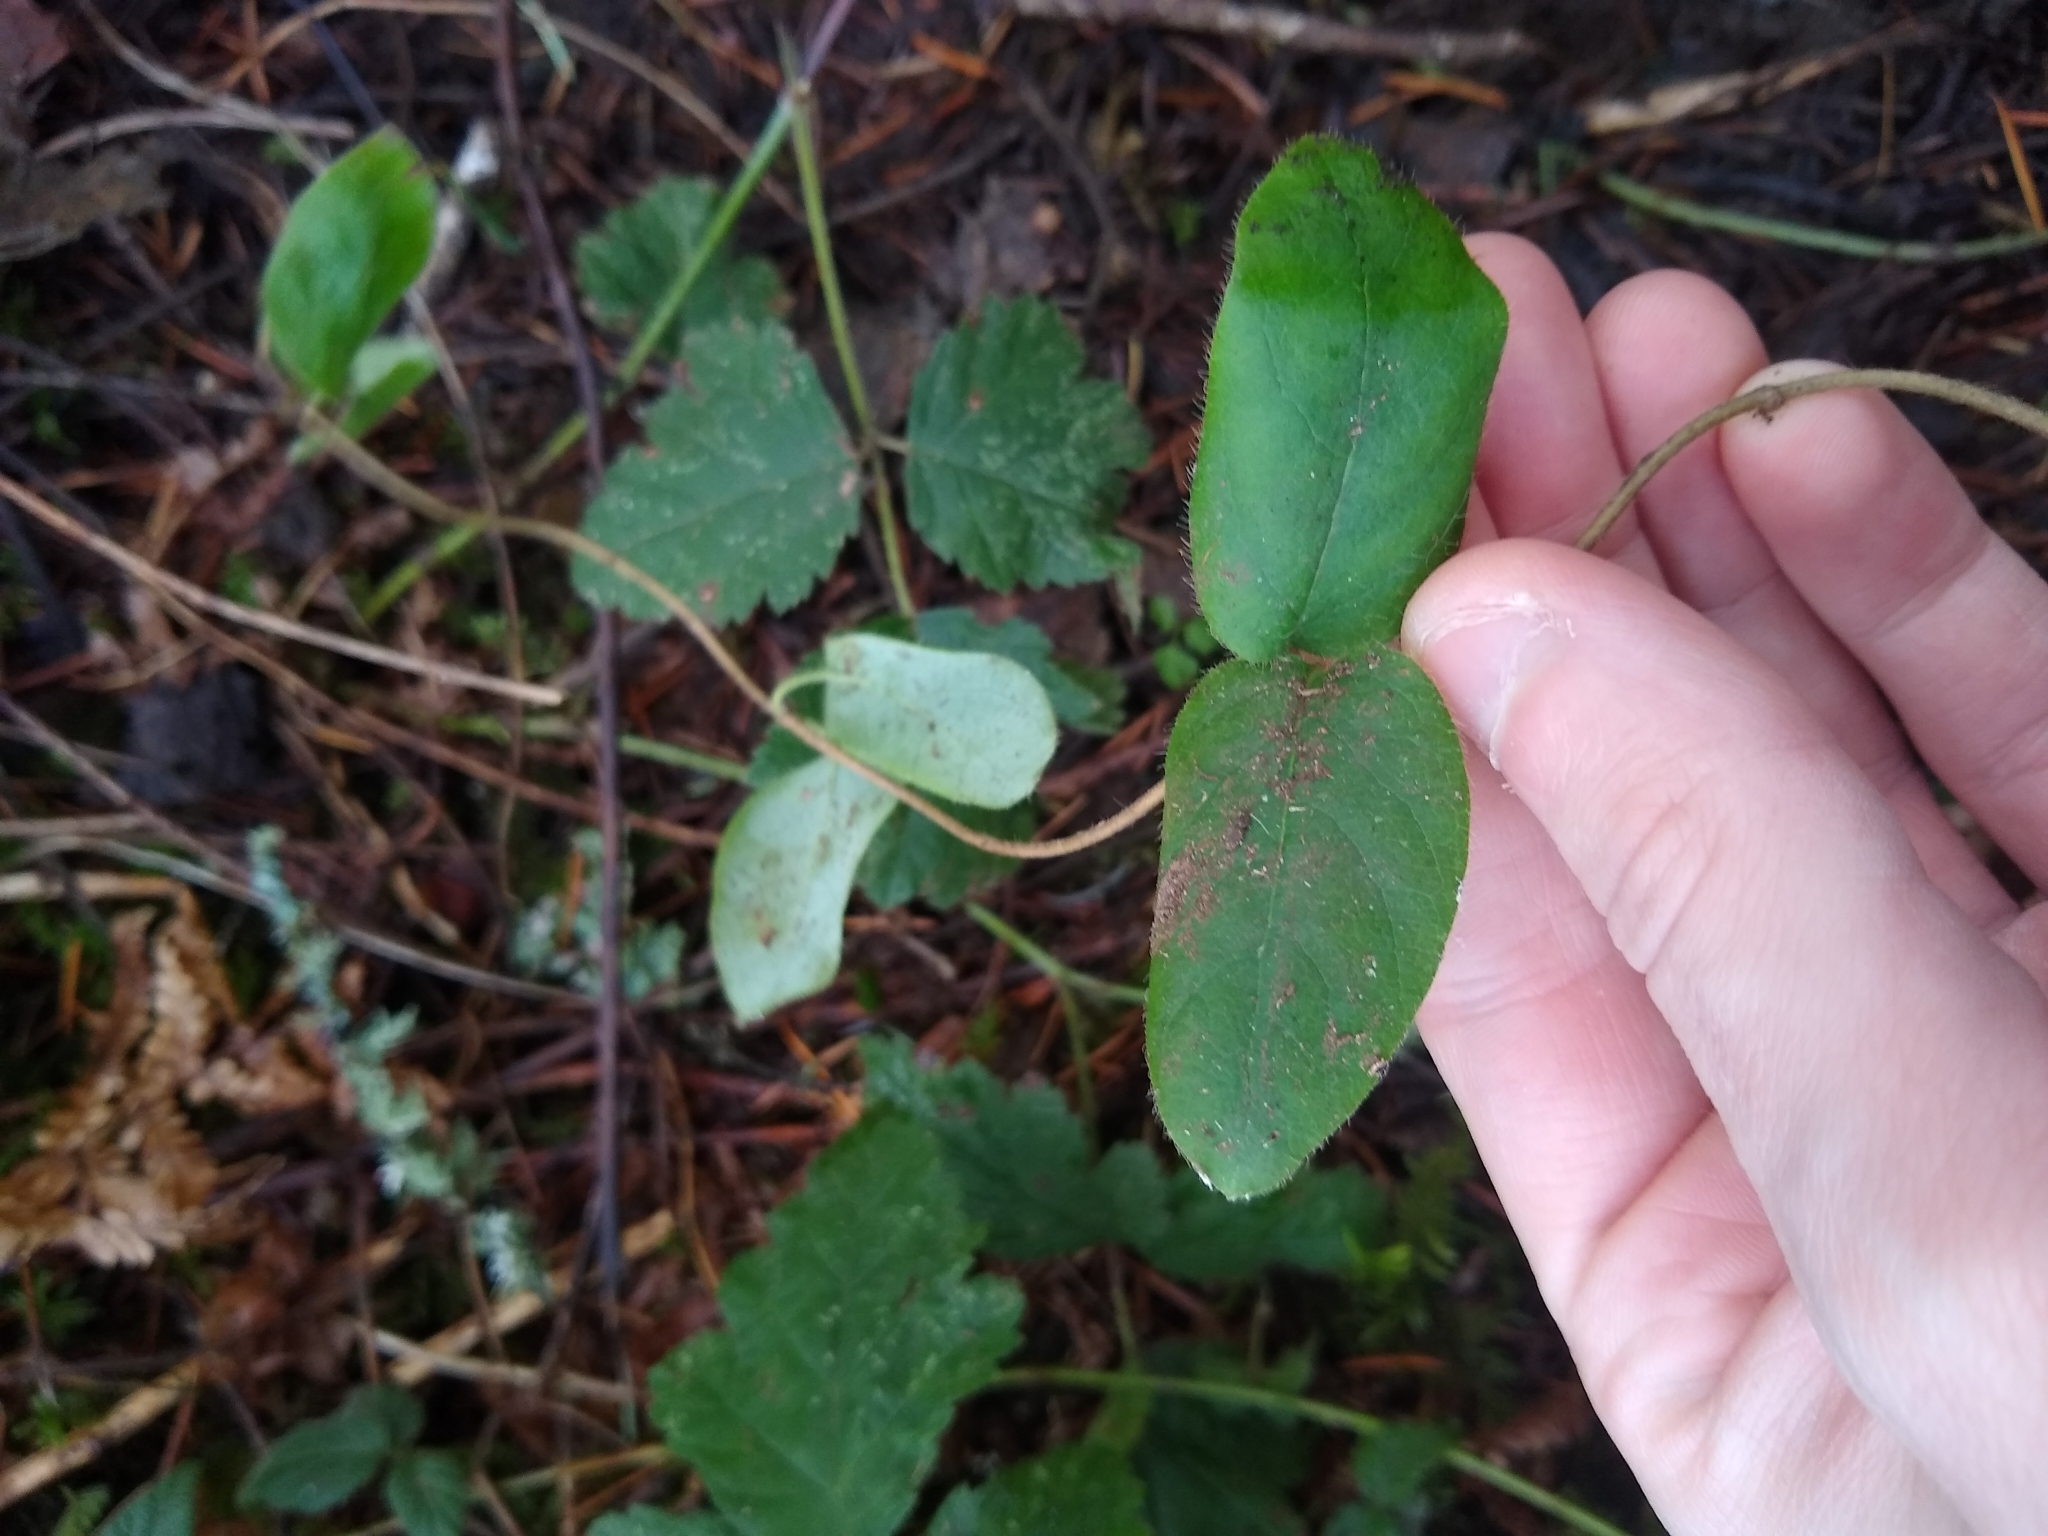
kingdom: Plantae
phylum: Tracheophyta
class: Magnoliopsida
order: Dipsacales
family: Caprifoliaceae
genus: Lonicera
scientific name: Lonicera hispidula
